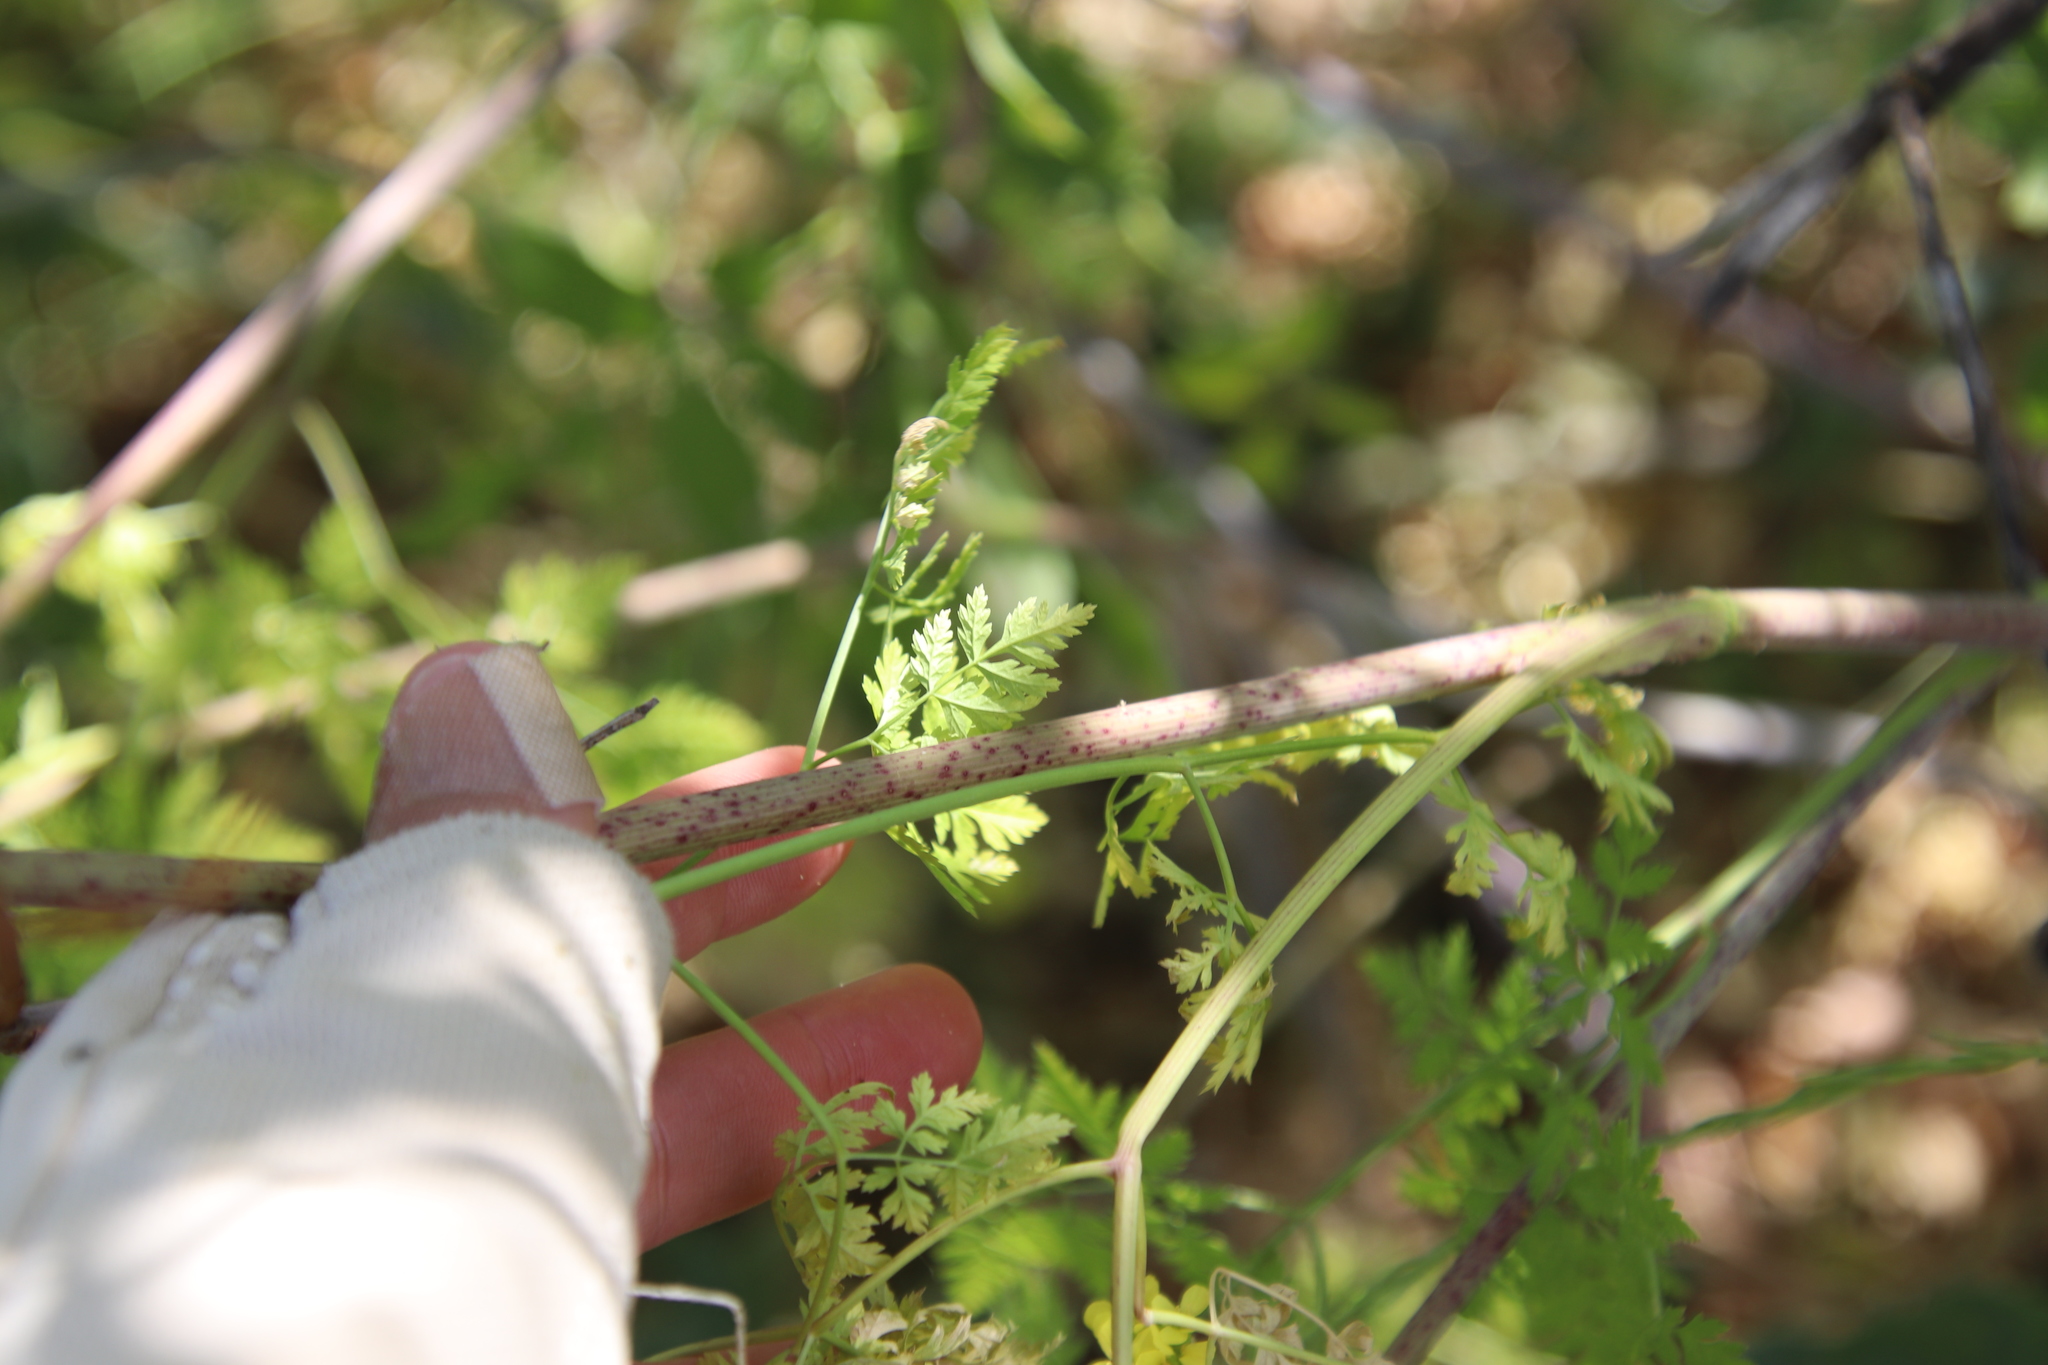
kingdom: Plantae
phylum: Tracheophyta
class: Magnoliopsida
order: Apiales
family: Apiaceae
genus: Conium
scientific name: Conium maculatum
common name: Hemlock
